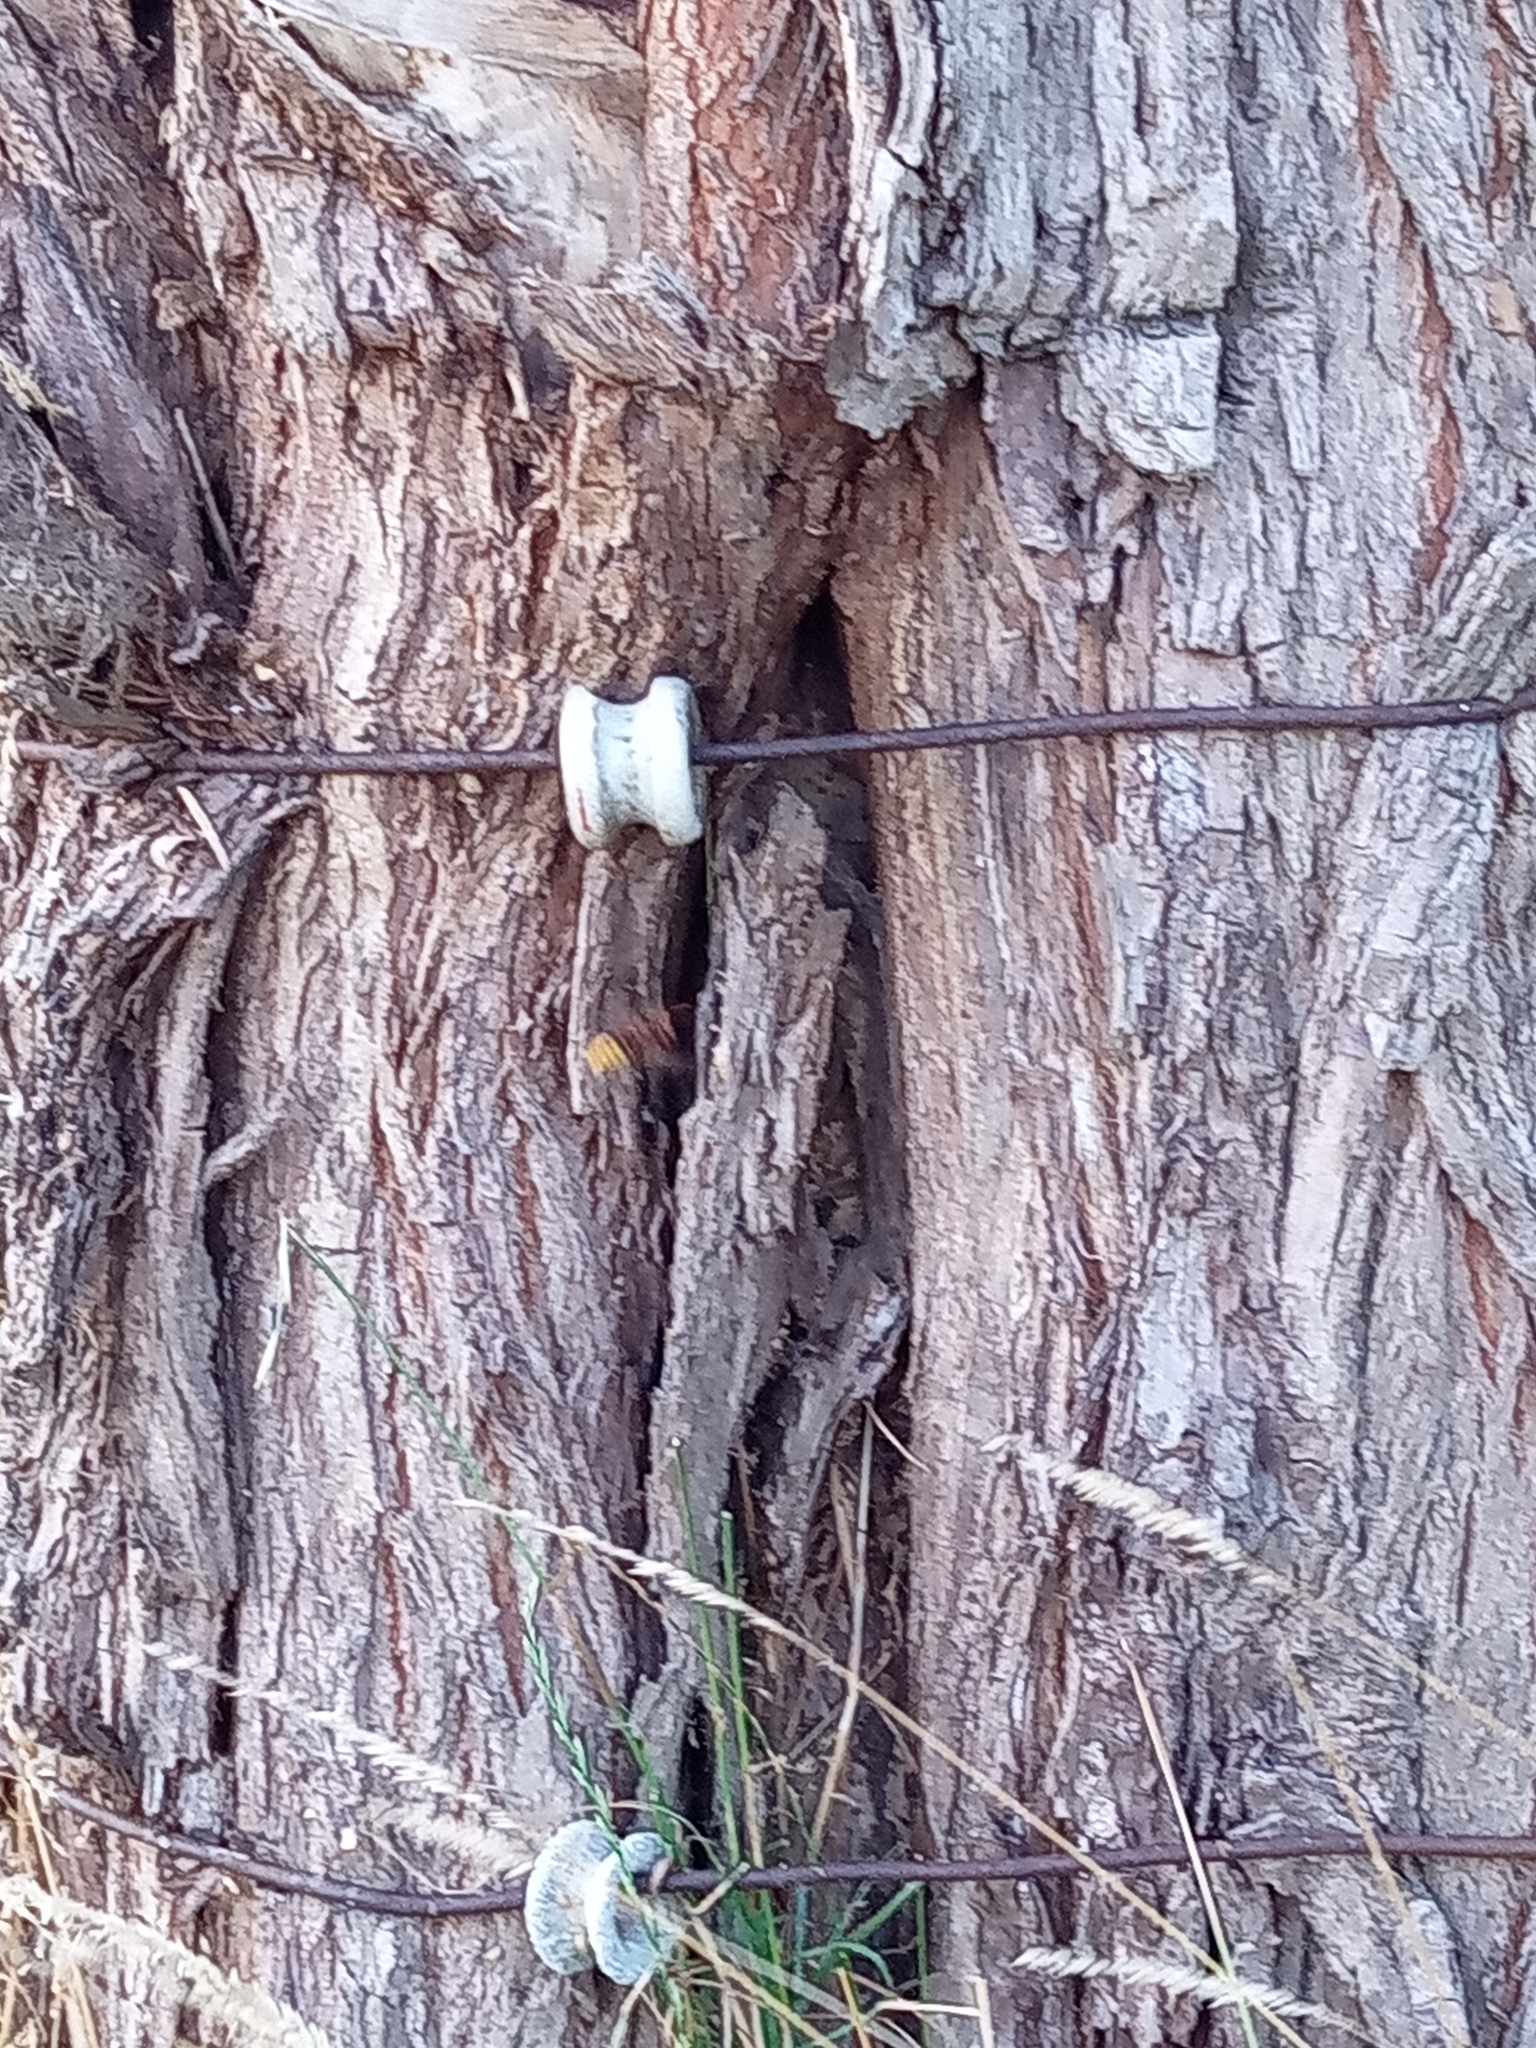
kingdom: Animalia
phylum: Arthropoda
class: Insecta
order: Hymenoptera
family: Vespidae
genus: Vespa
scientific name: Vespa crabro
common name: Hornet
